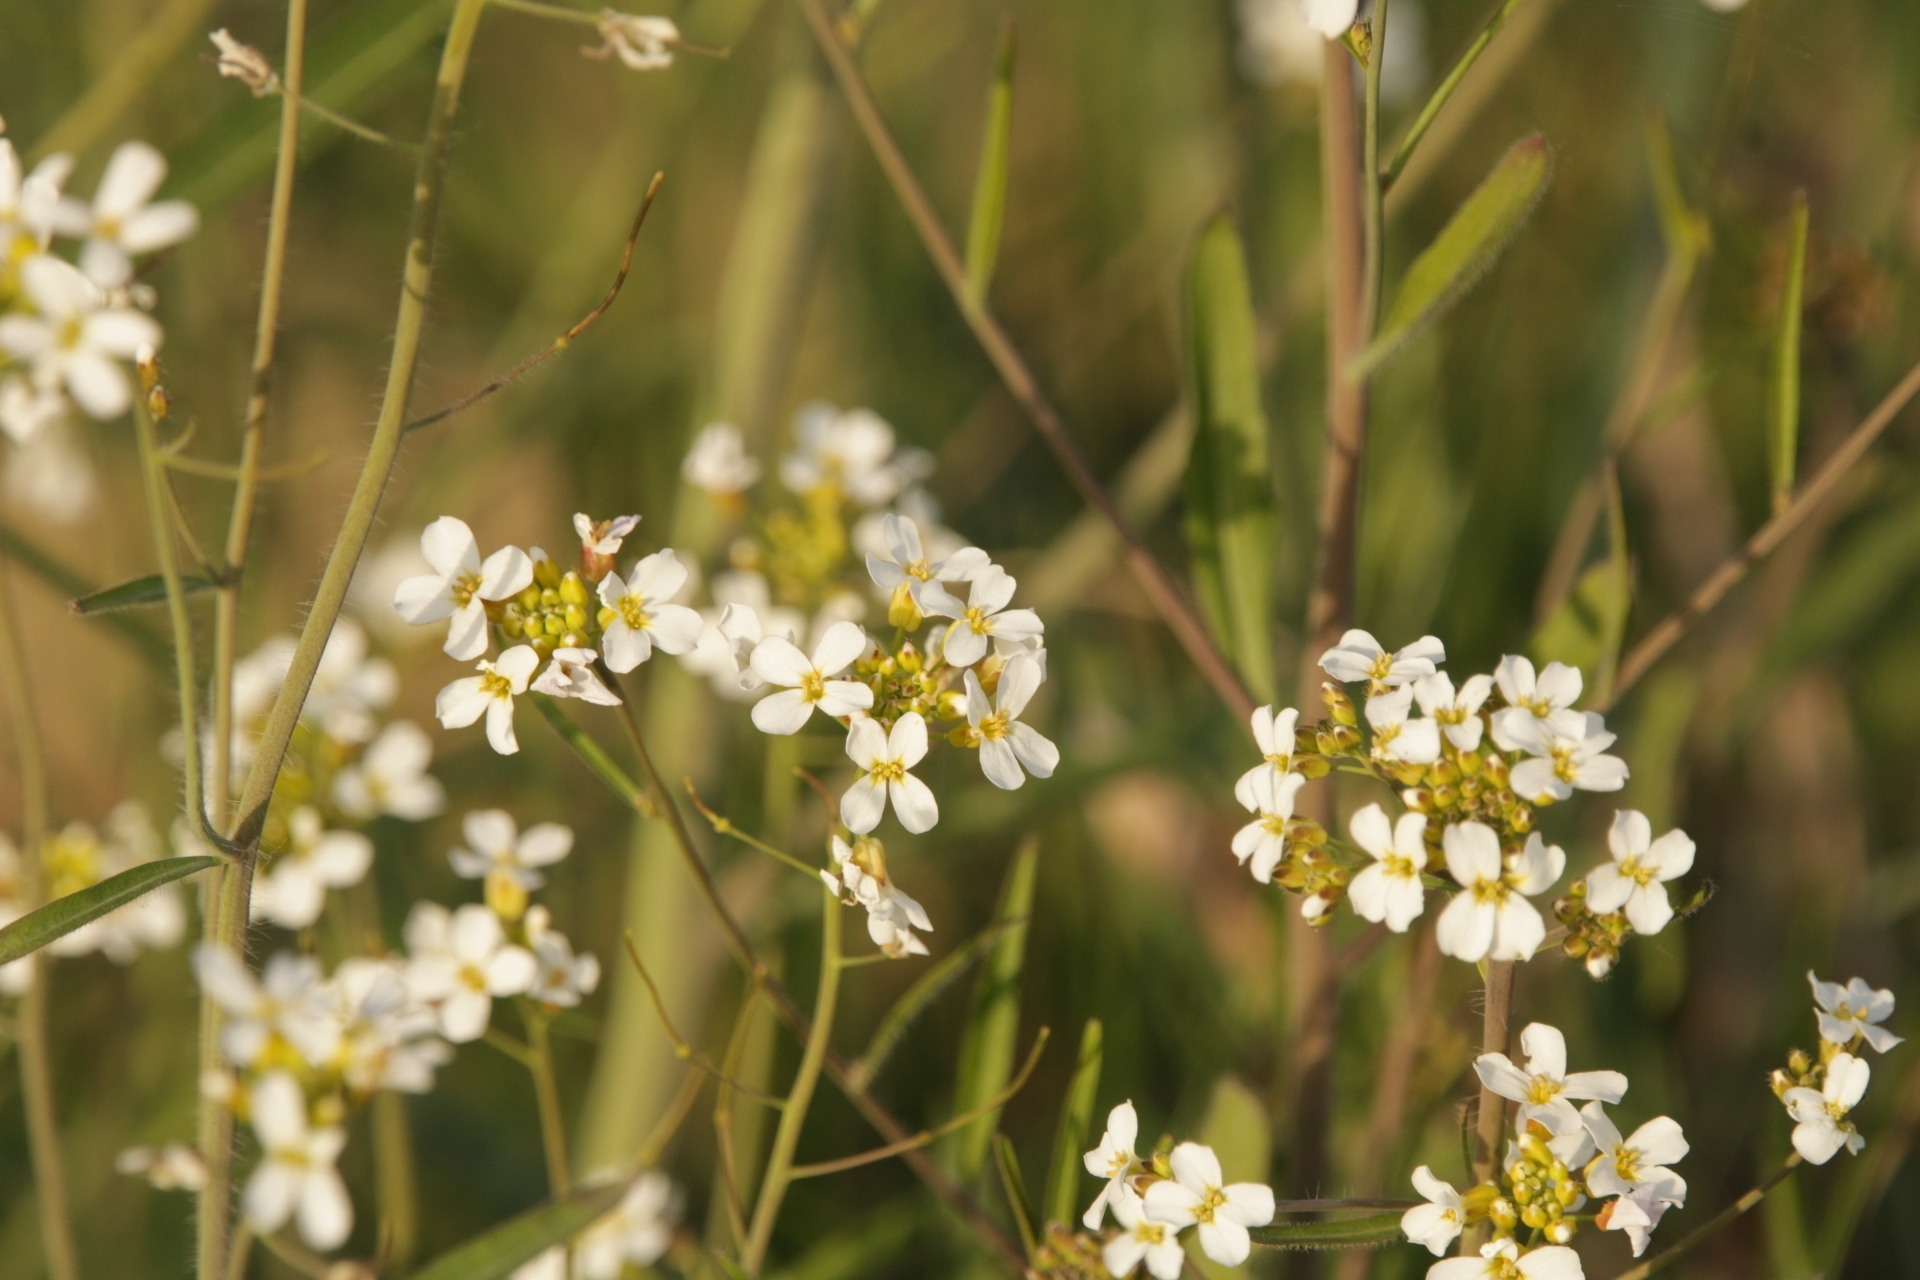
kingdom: Plantae
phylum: Tracheophyta
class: Magnoliopsida
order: Brassicales
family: Brassicaceae
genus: Arabidopsis
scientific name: Arabidopsis arenosa
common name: Sand rock-cress
